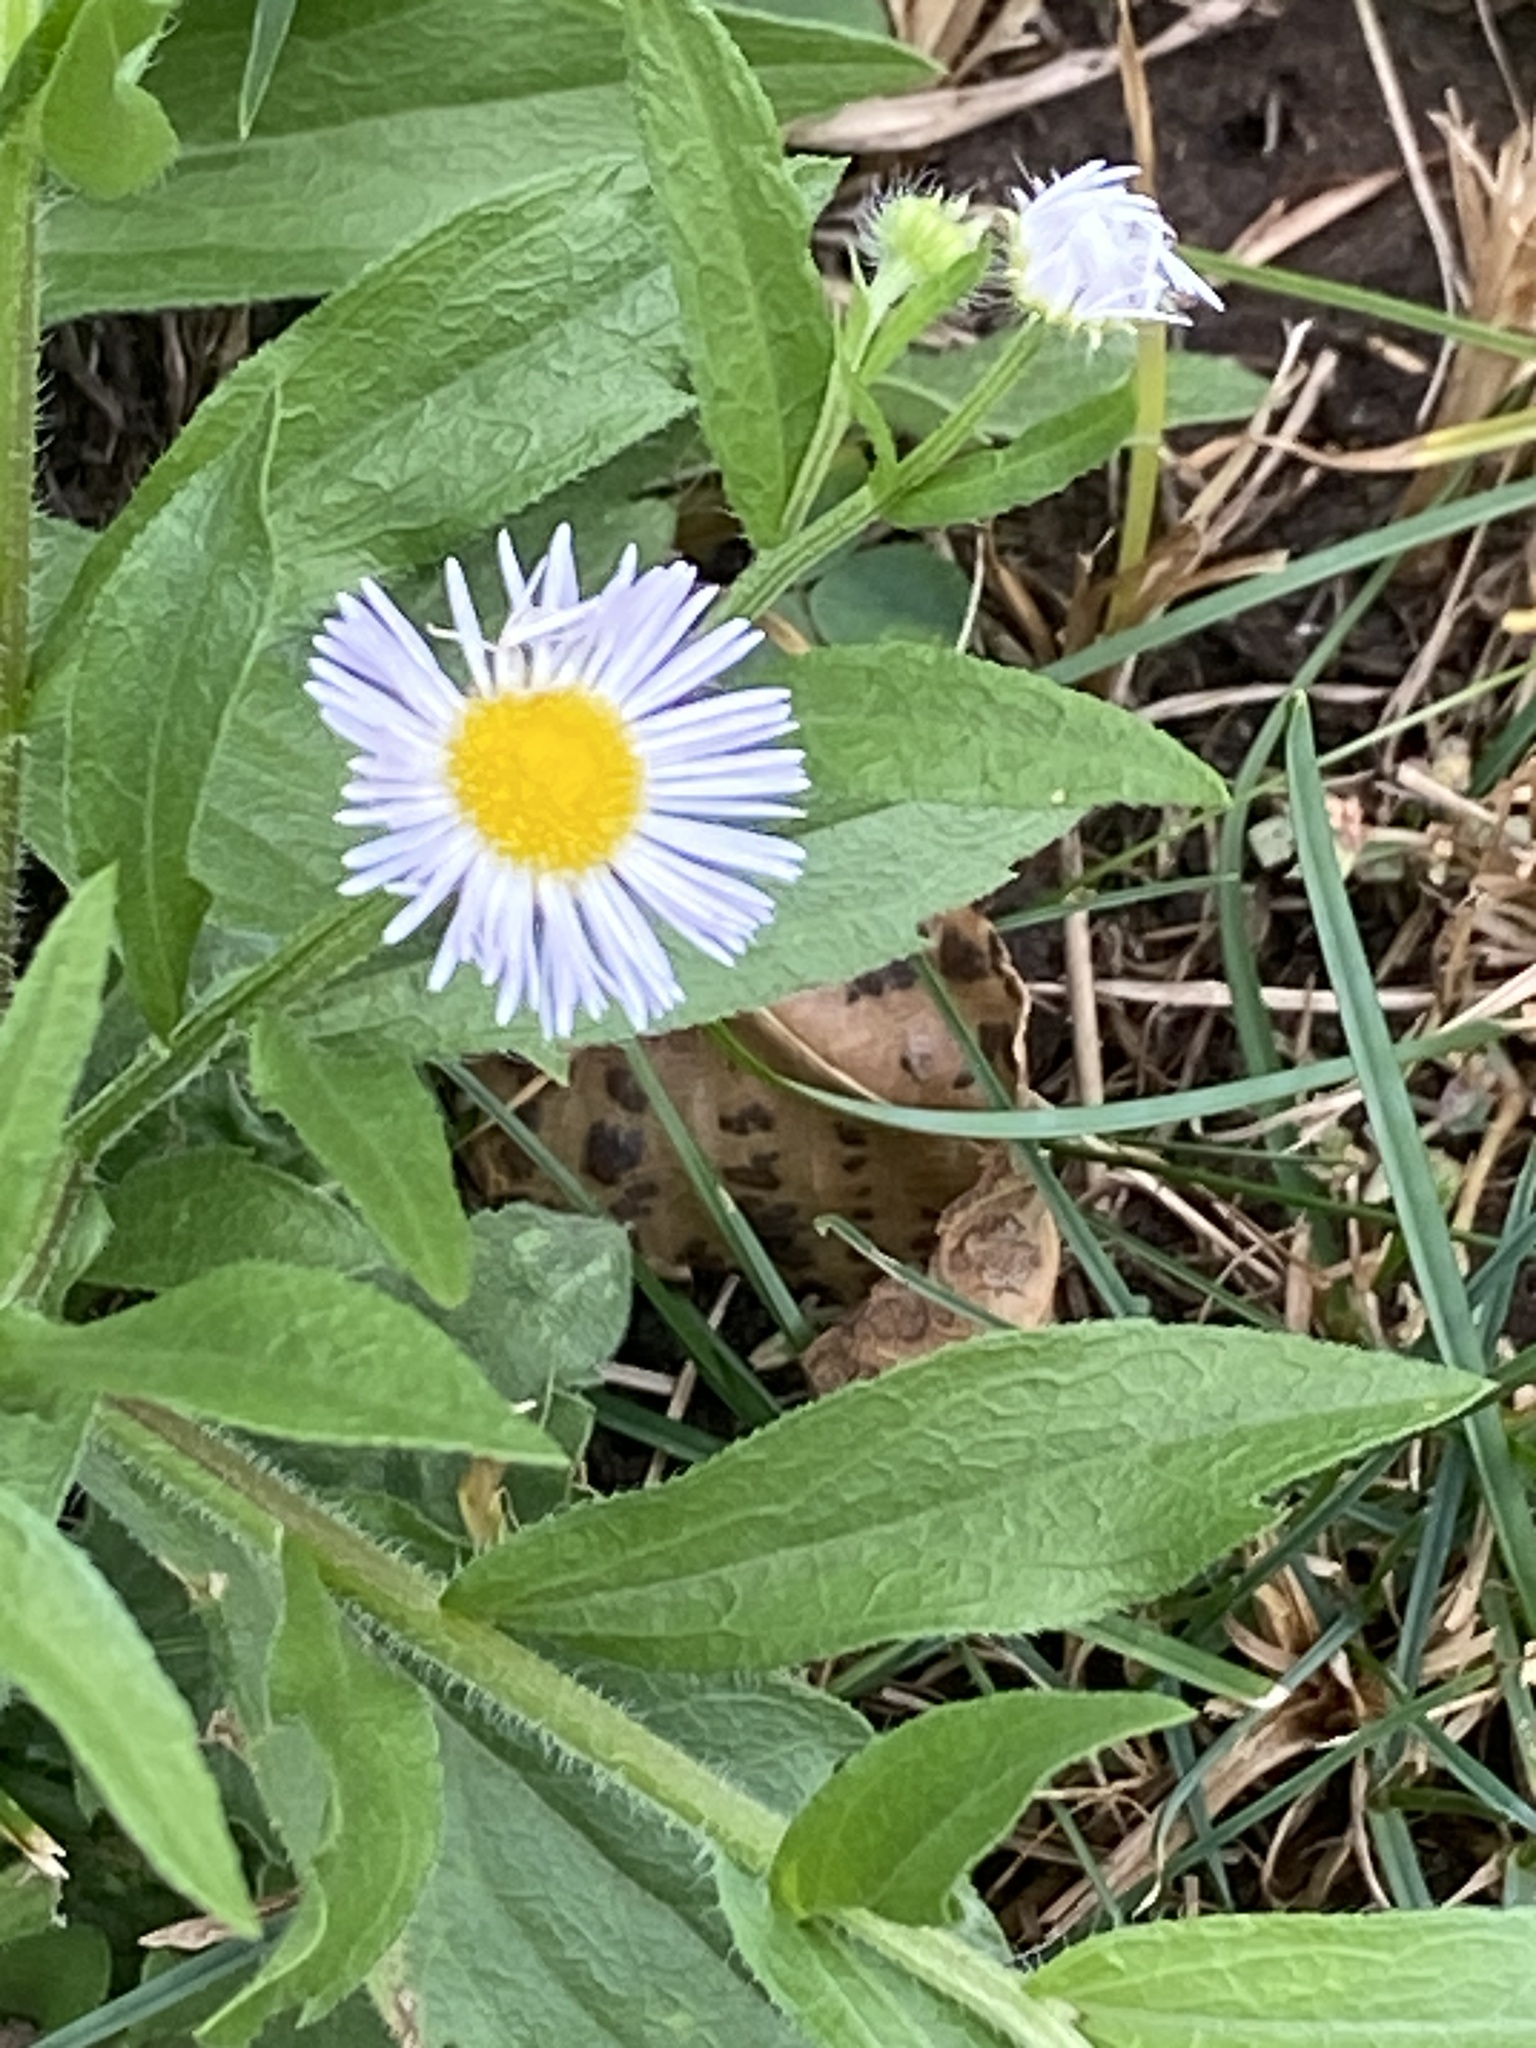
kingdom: Plantae
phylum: Tracheophyta
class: Magnoliopsida
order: Asterales
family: Asteraceae
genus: Erigeron
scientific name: Erigeron annuus
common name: Tall fleabane
